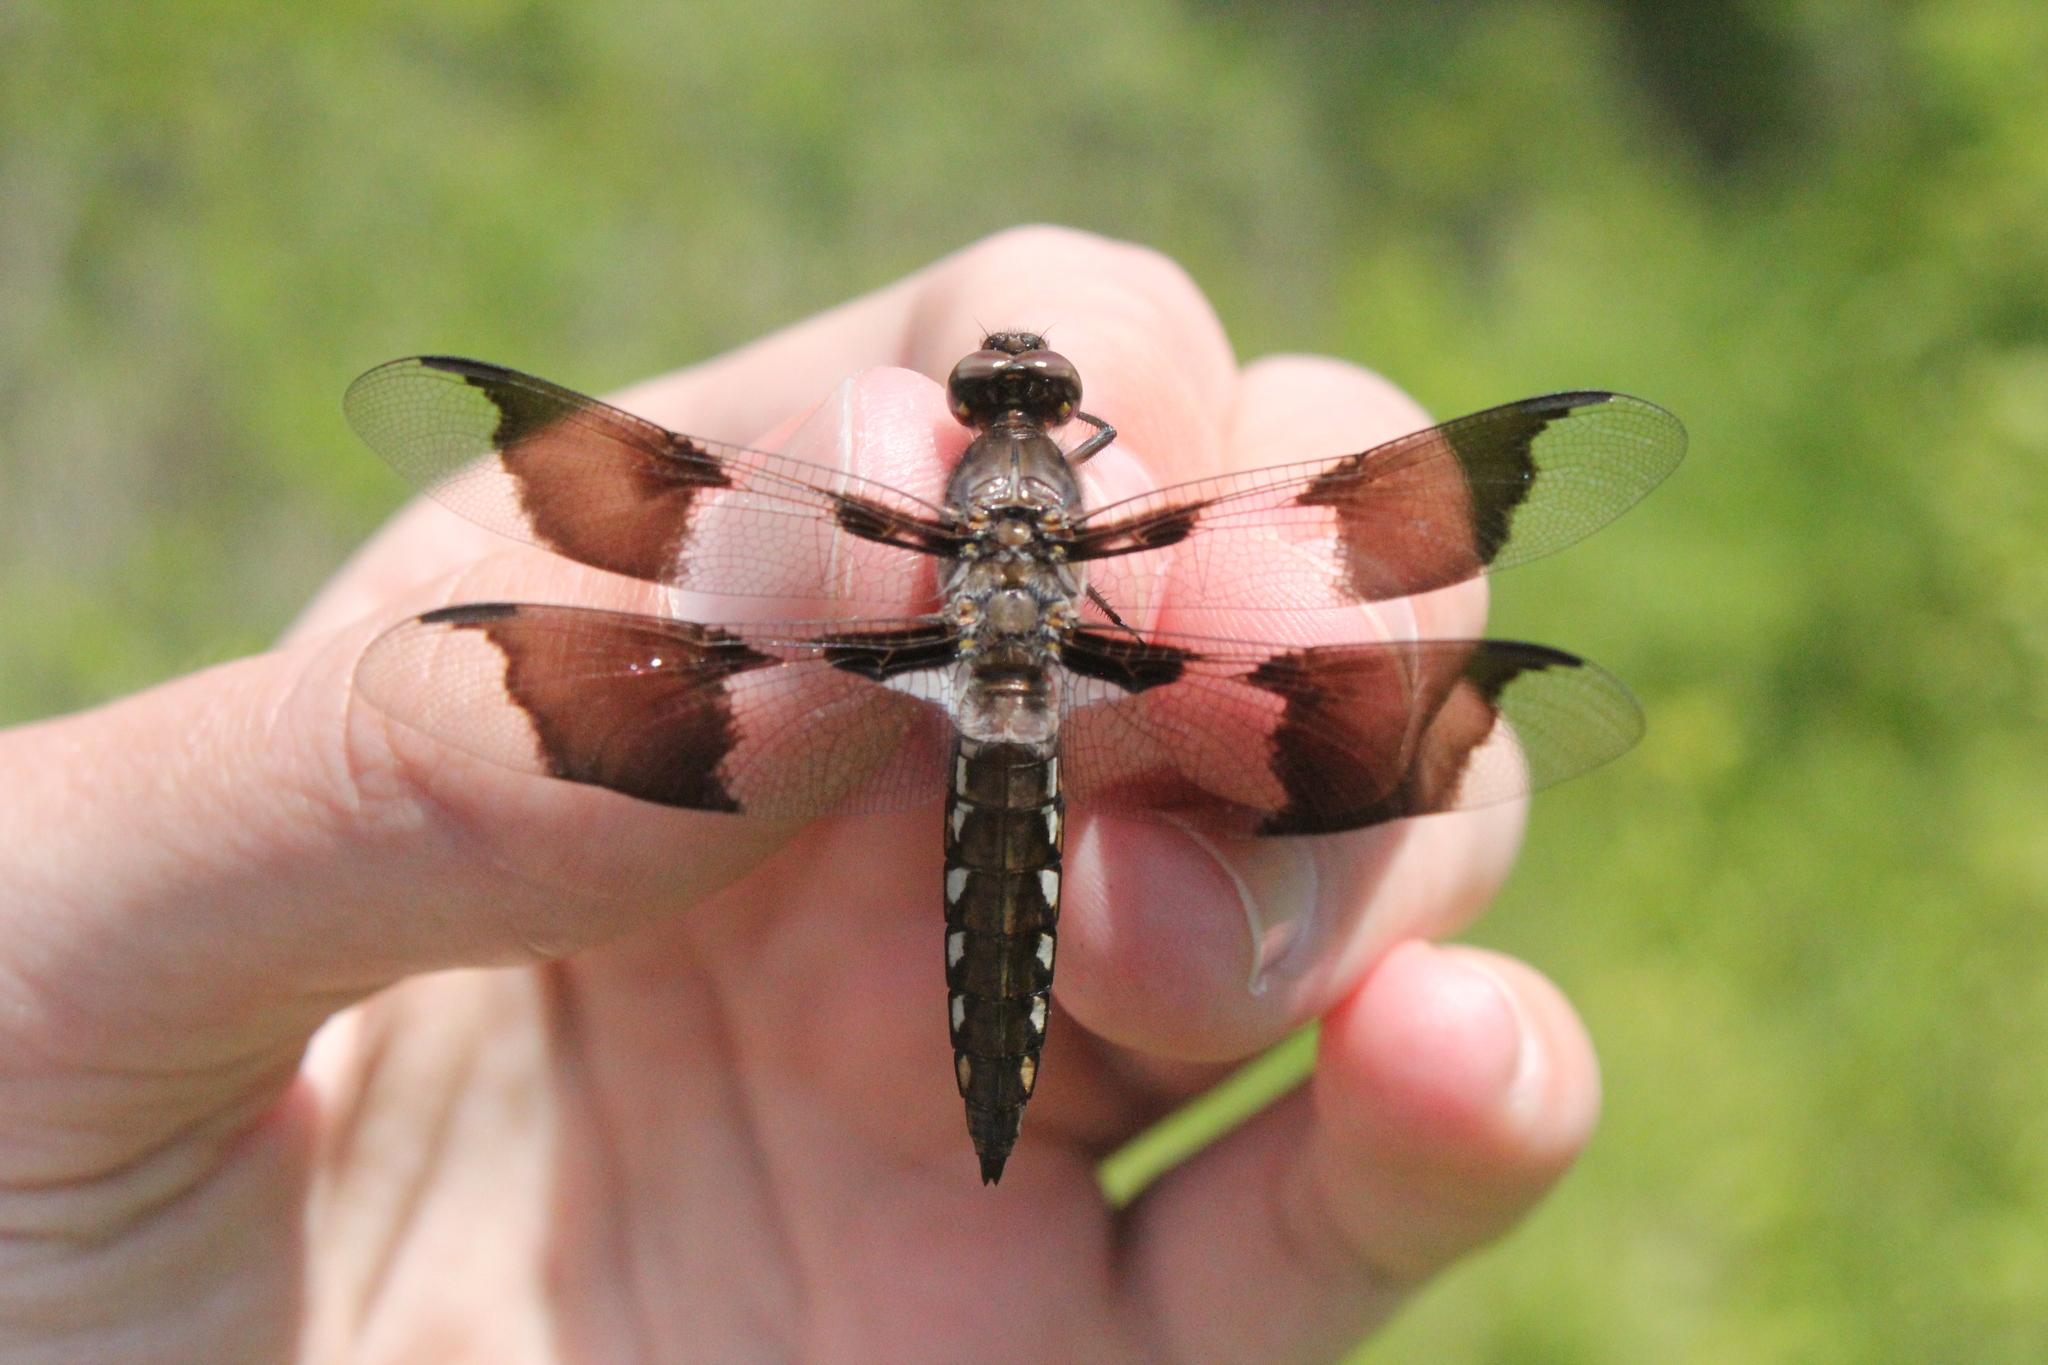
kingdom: Animalia
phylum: Arthropoda
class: Insecta
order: Odonata
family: Libellulidae
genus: Plathemis
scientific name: Plathemis lydia
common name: Common whitetail
